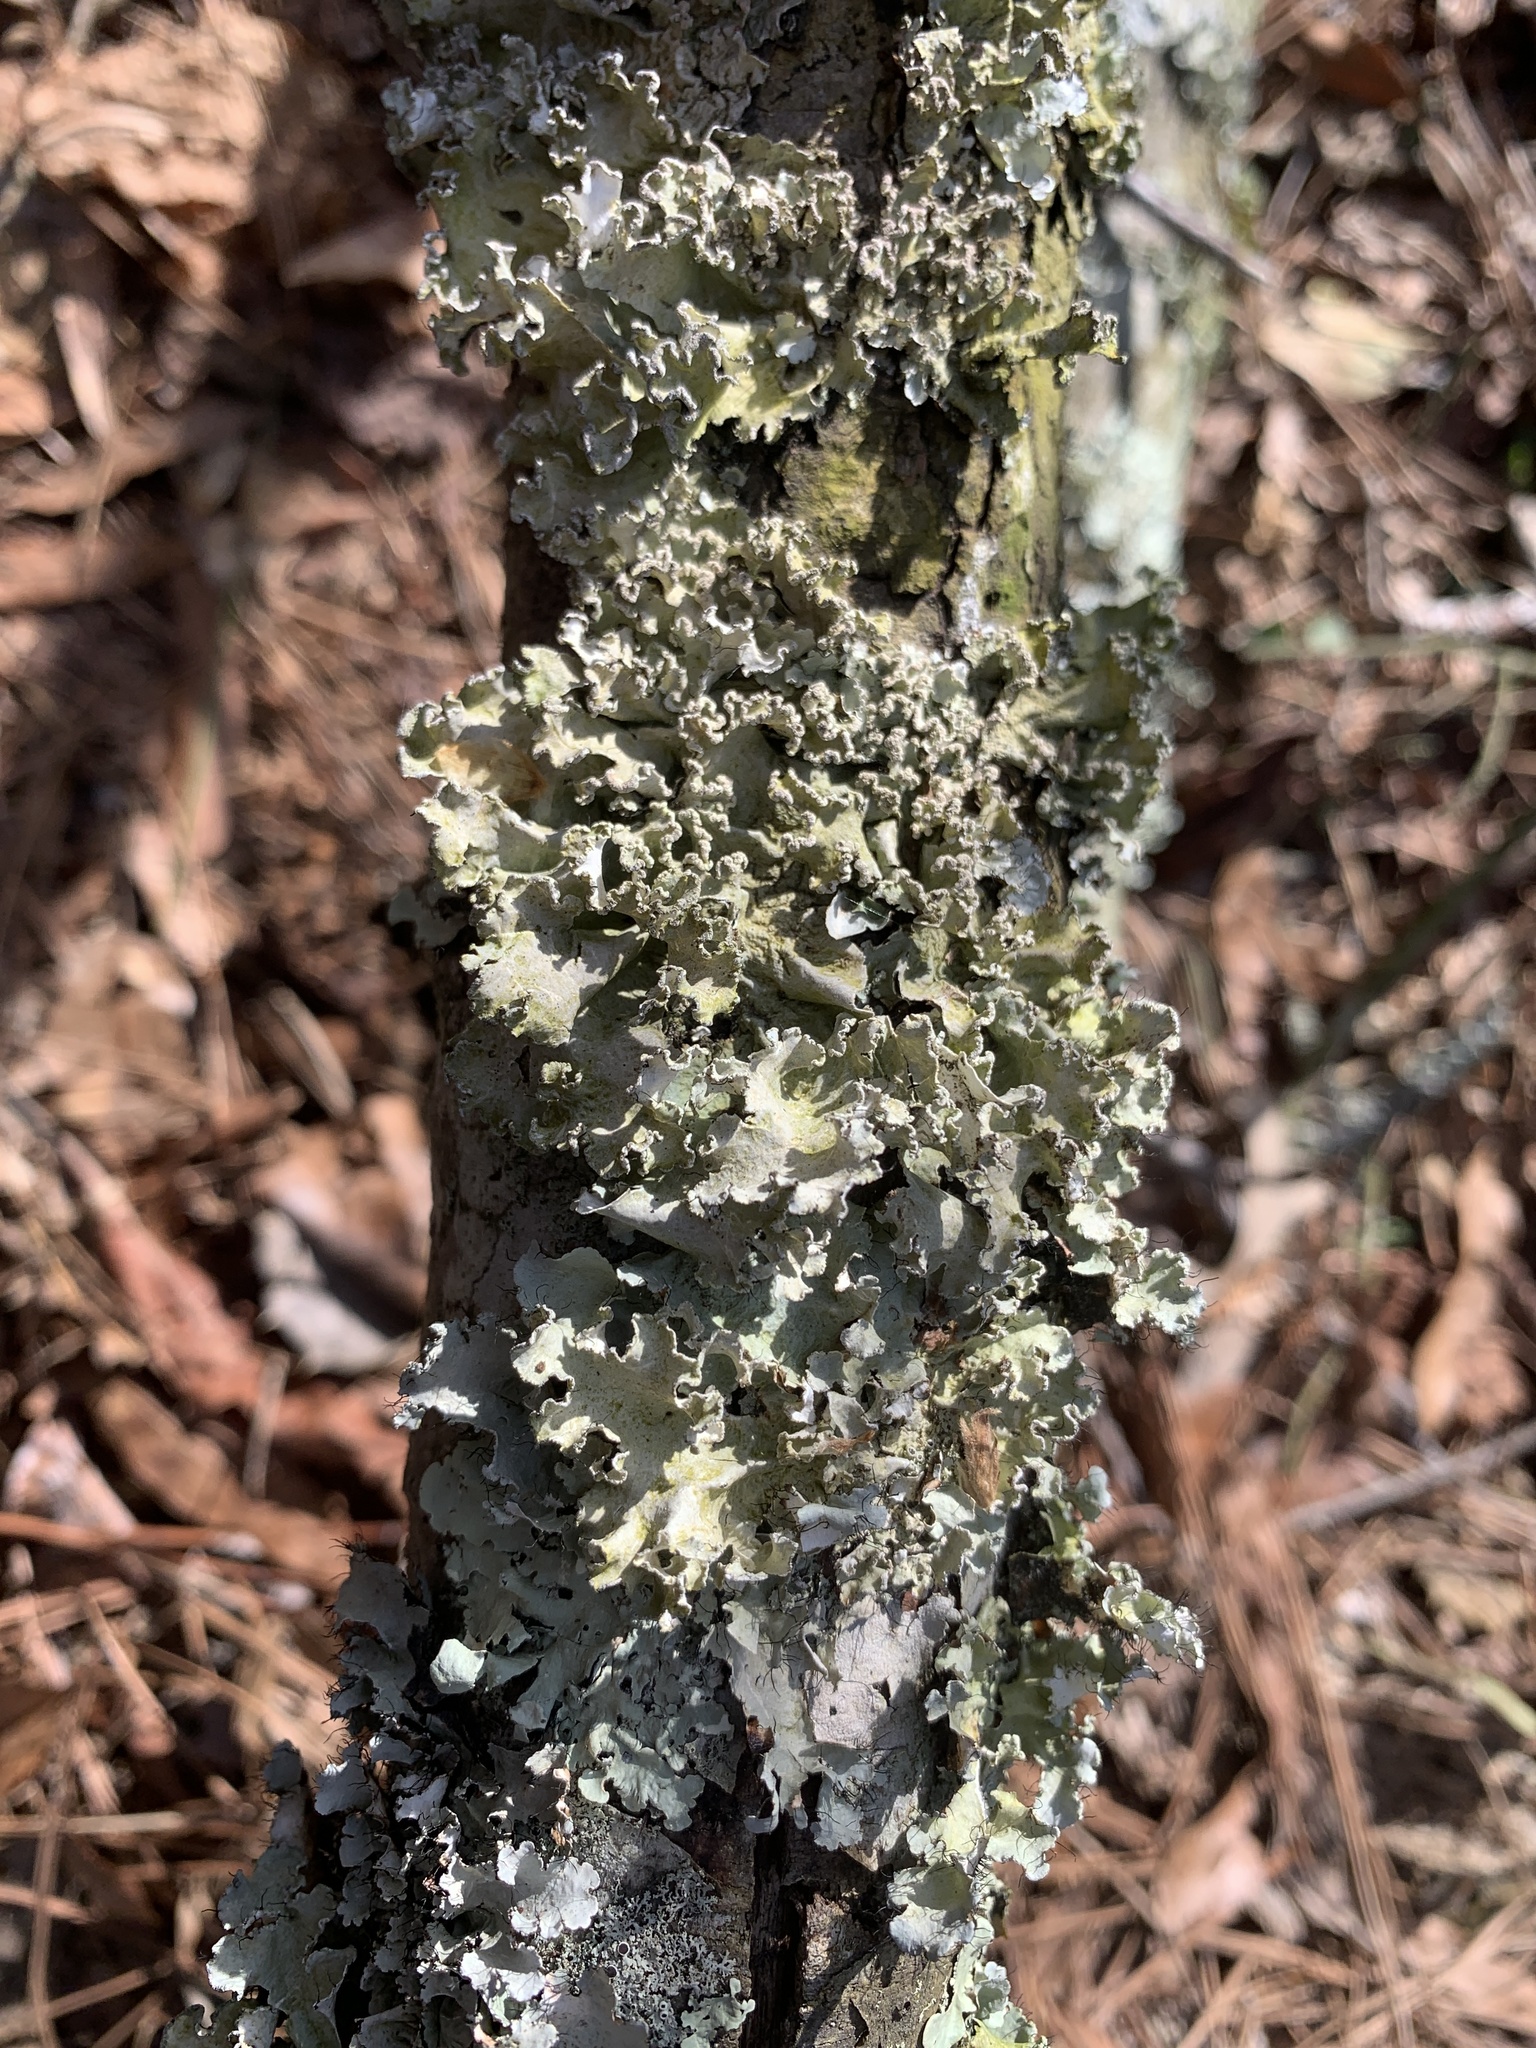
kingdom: Fungi
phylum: Ascomycota
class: Lecanoromycetes
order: Lecanorales
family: Parmeliaceae
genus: Parmotrema
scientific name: Parmotrema hypotropum
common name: Powdered ruffle lichen
